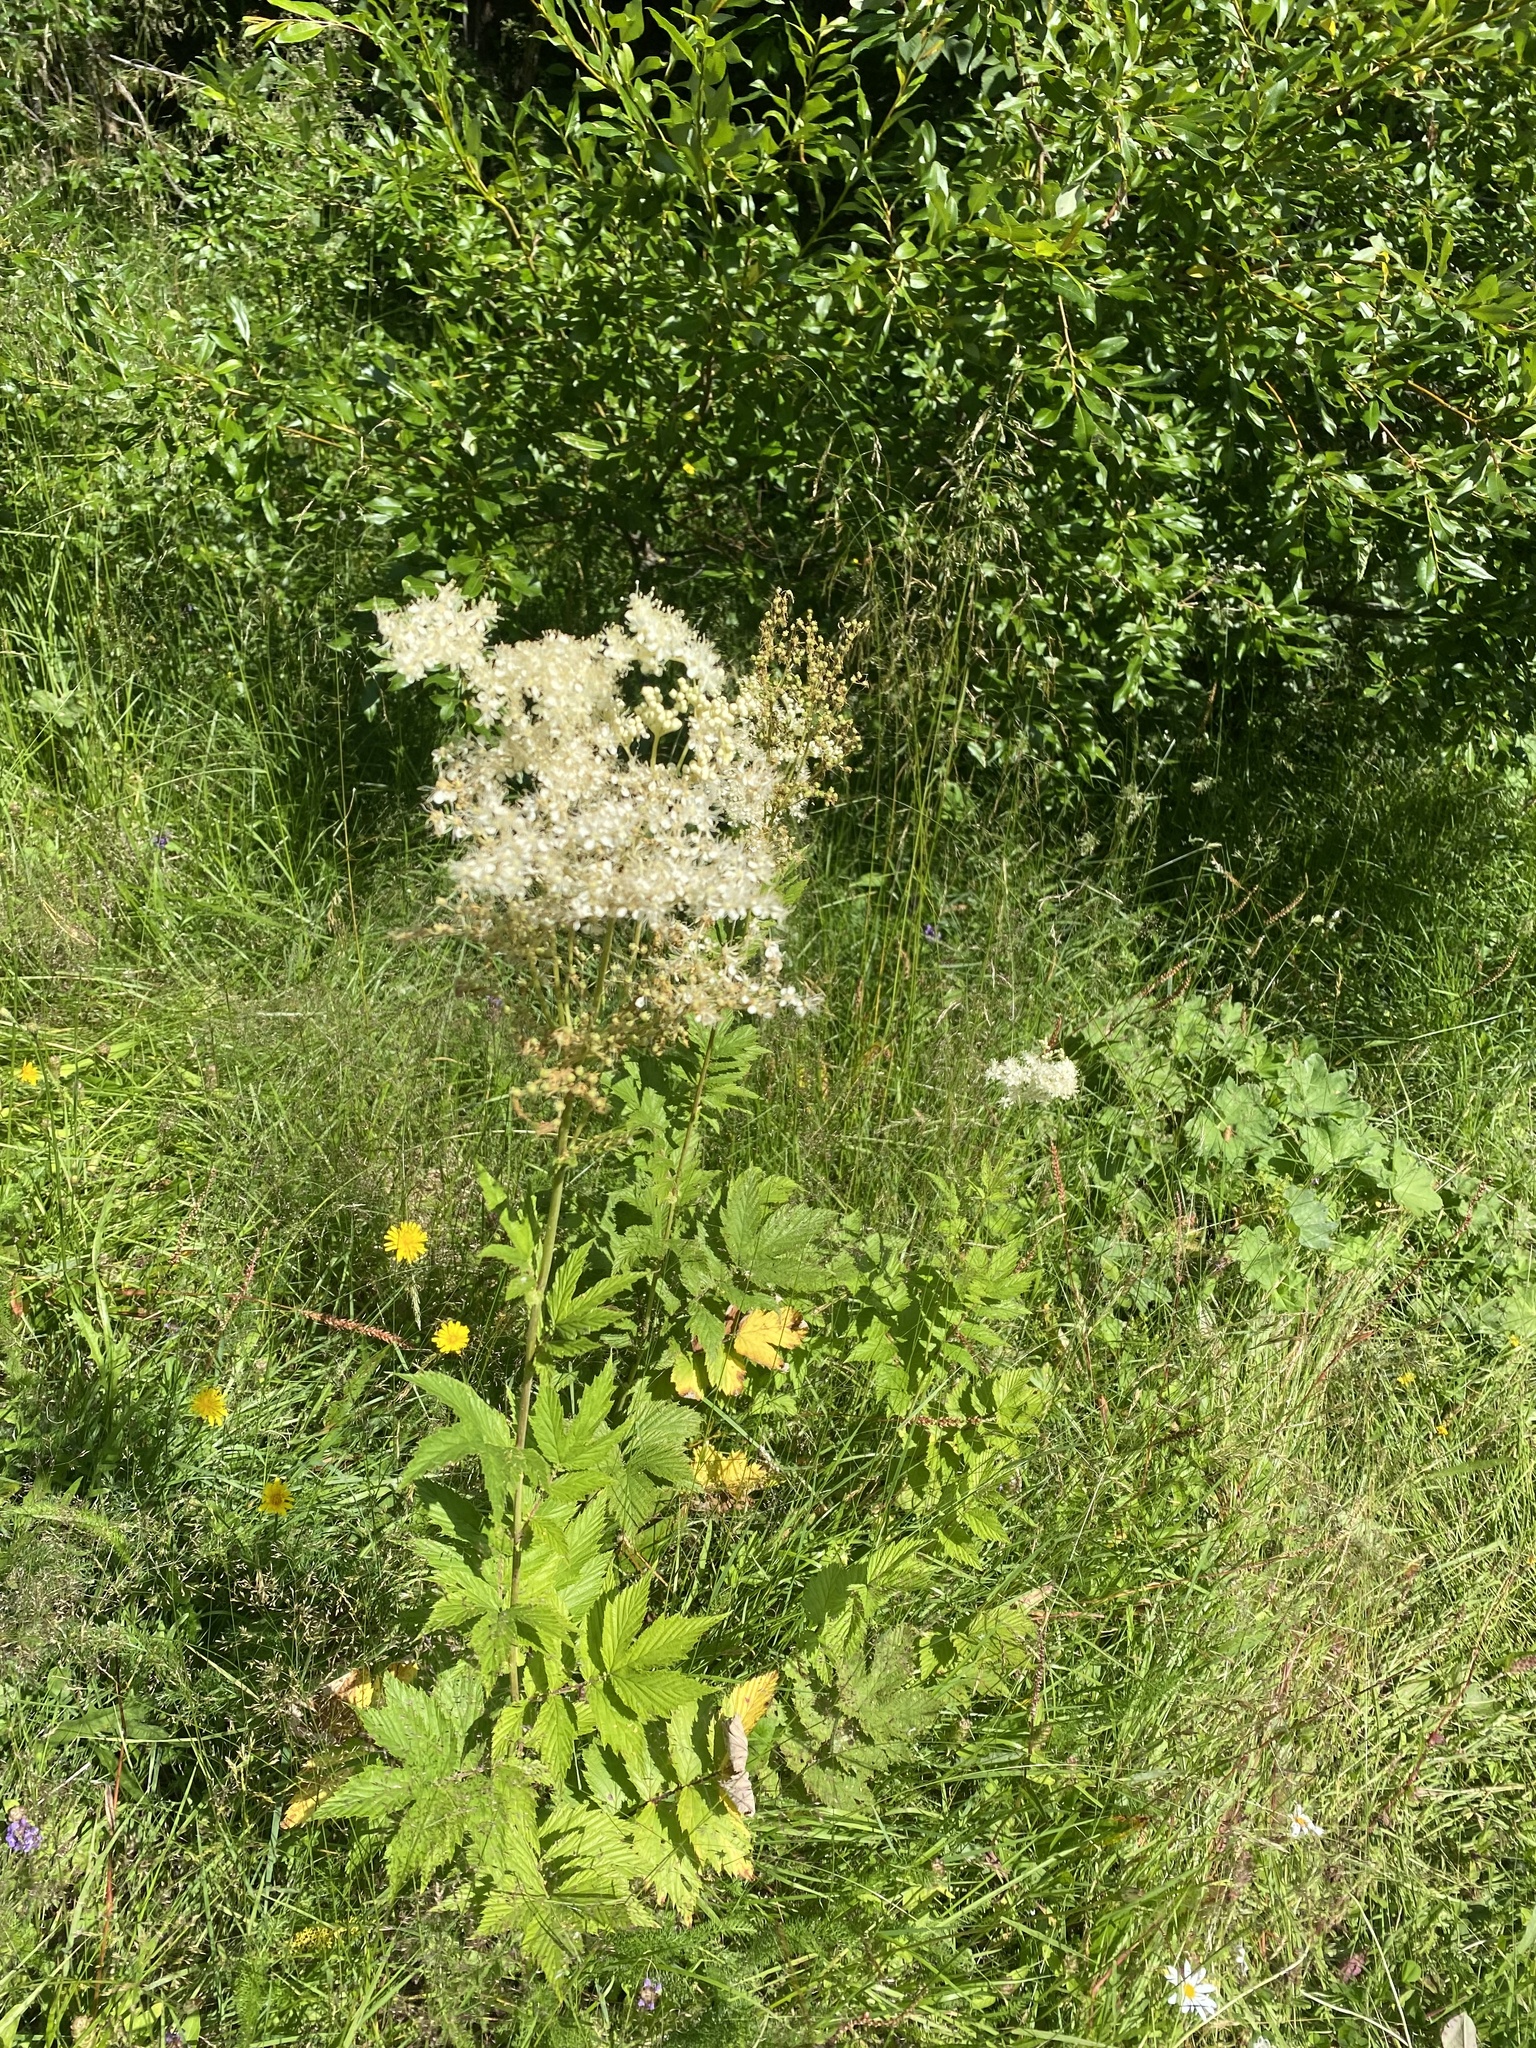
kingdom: Plantae
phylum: Tracheophyta
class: Magnoliopsida
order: Rosales
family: Rosaceae
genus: Filipendula
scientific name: Filipendula ulmaria
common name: Meadowsweet
